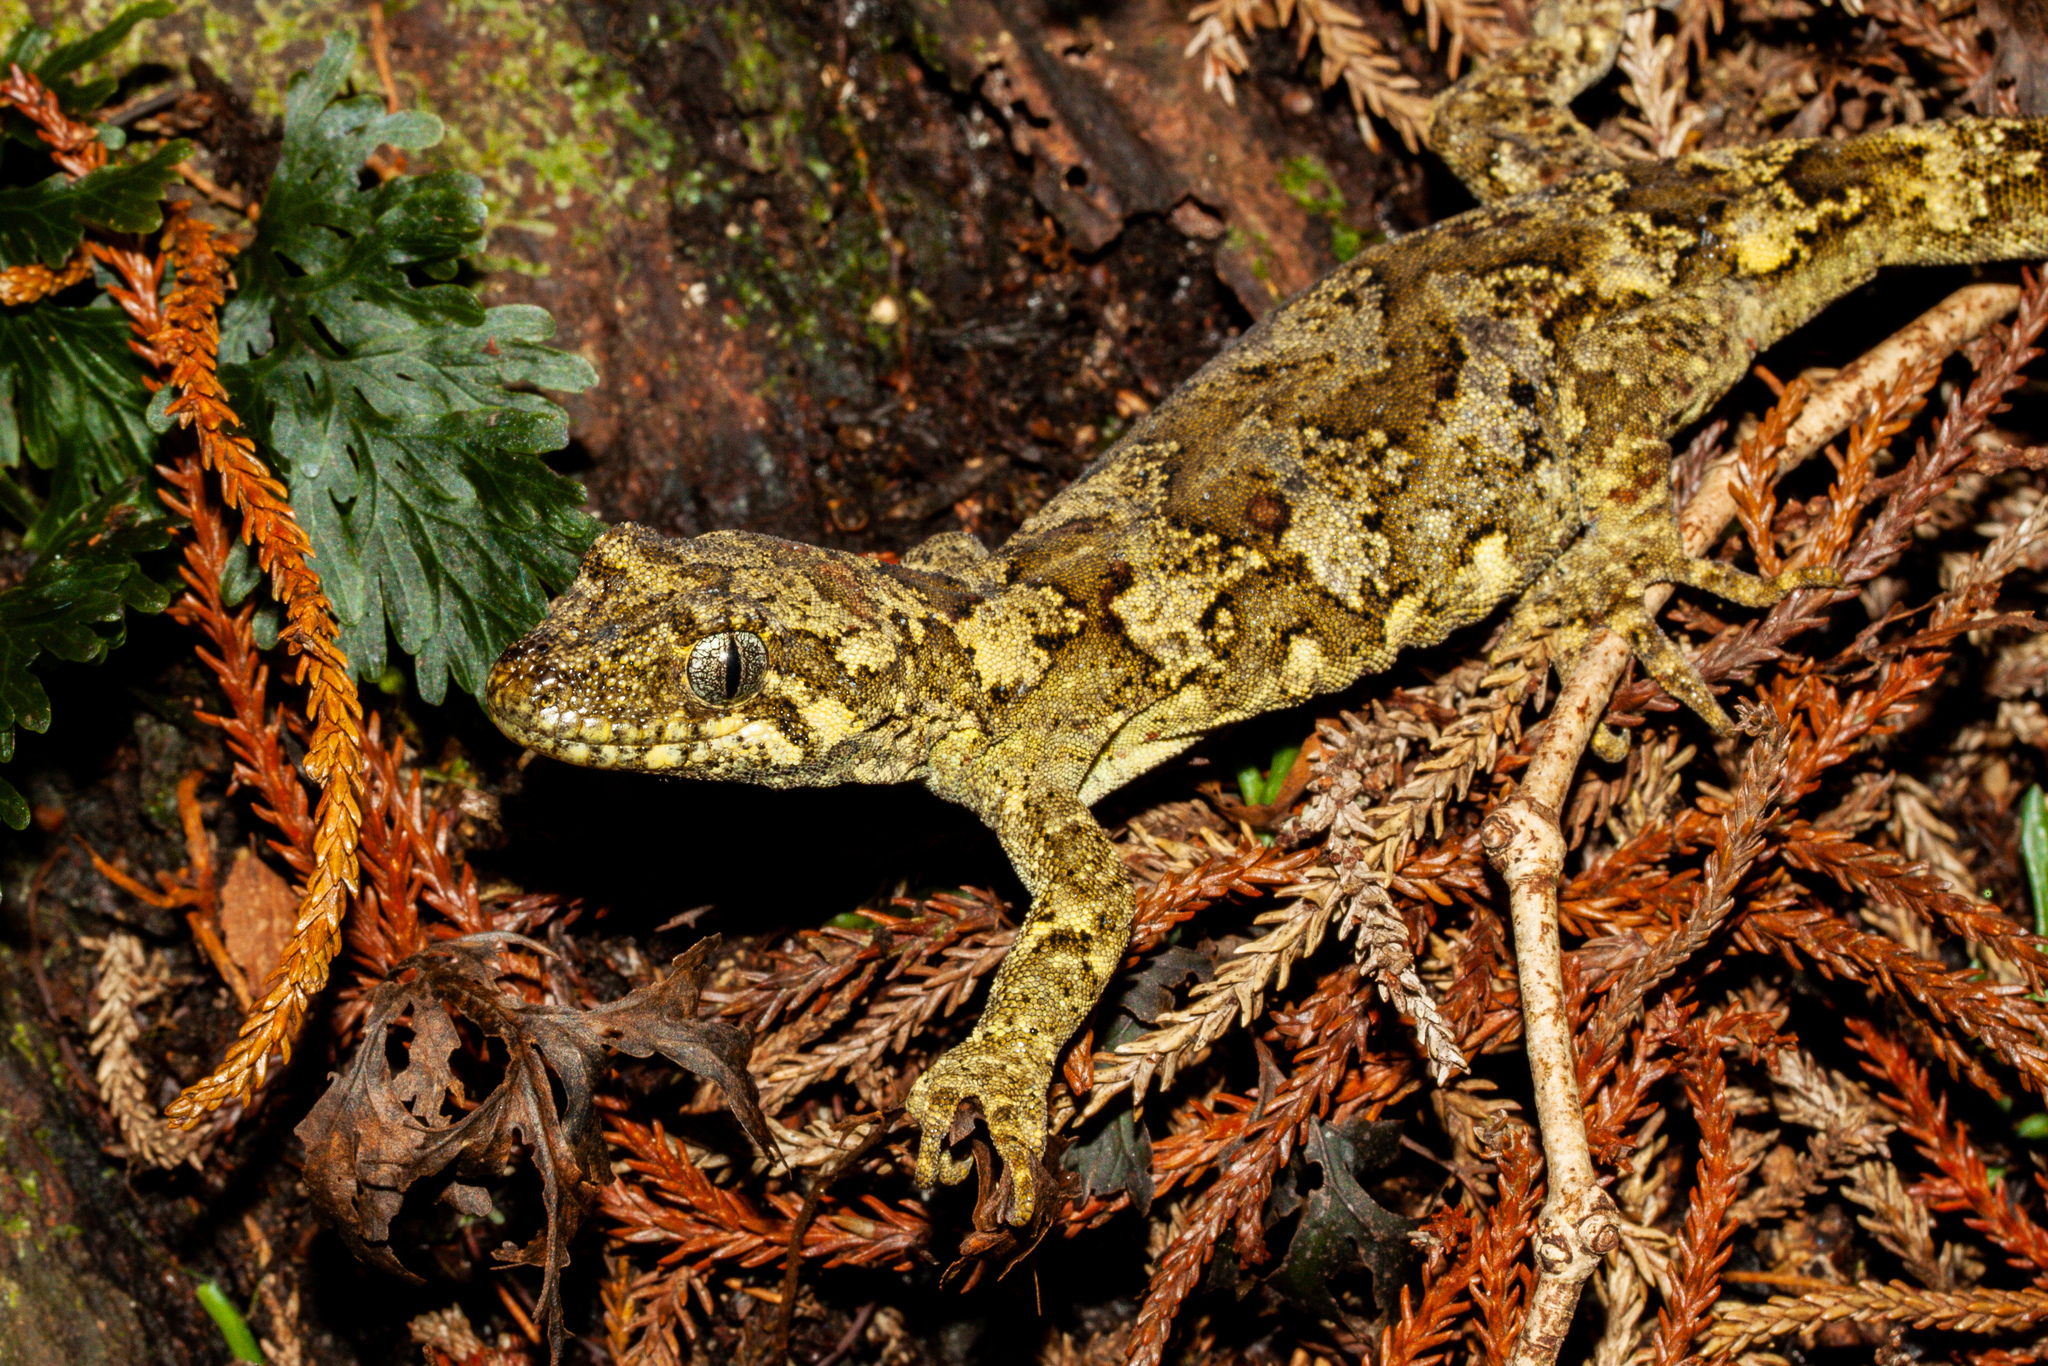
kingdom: Animalia
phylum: Chordata
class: Squamata
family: Diplodactylidae
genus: Mokopirirakau
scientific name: Mokopirirakau
